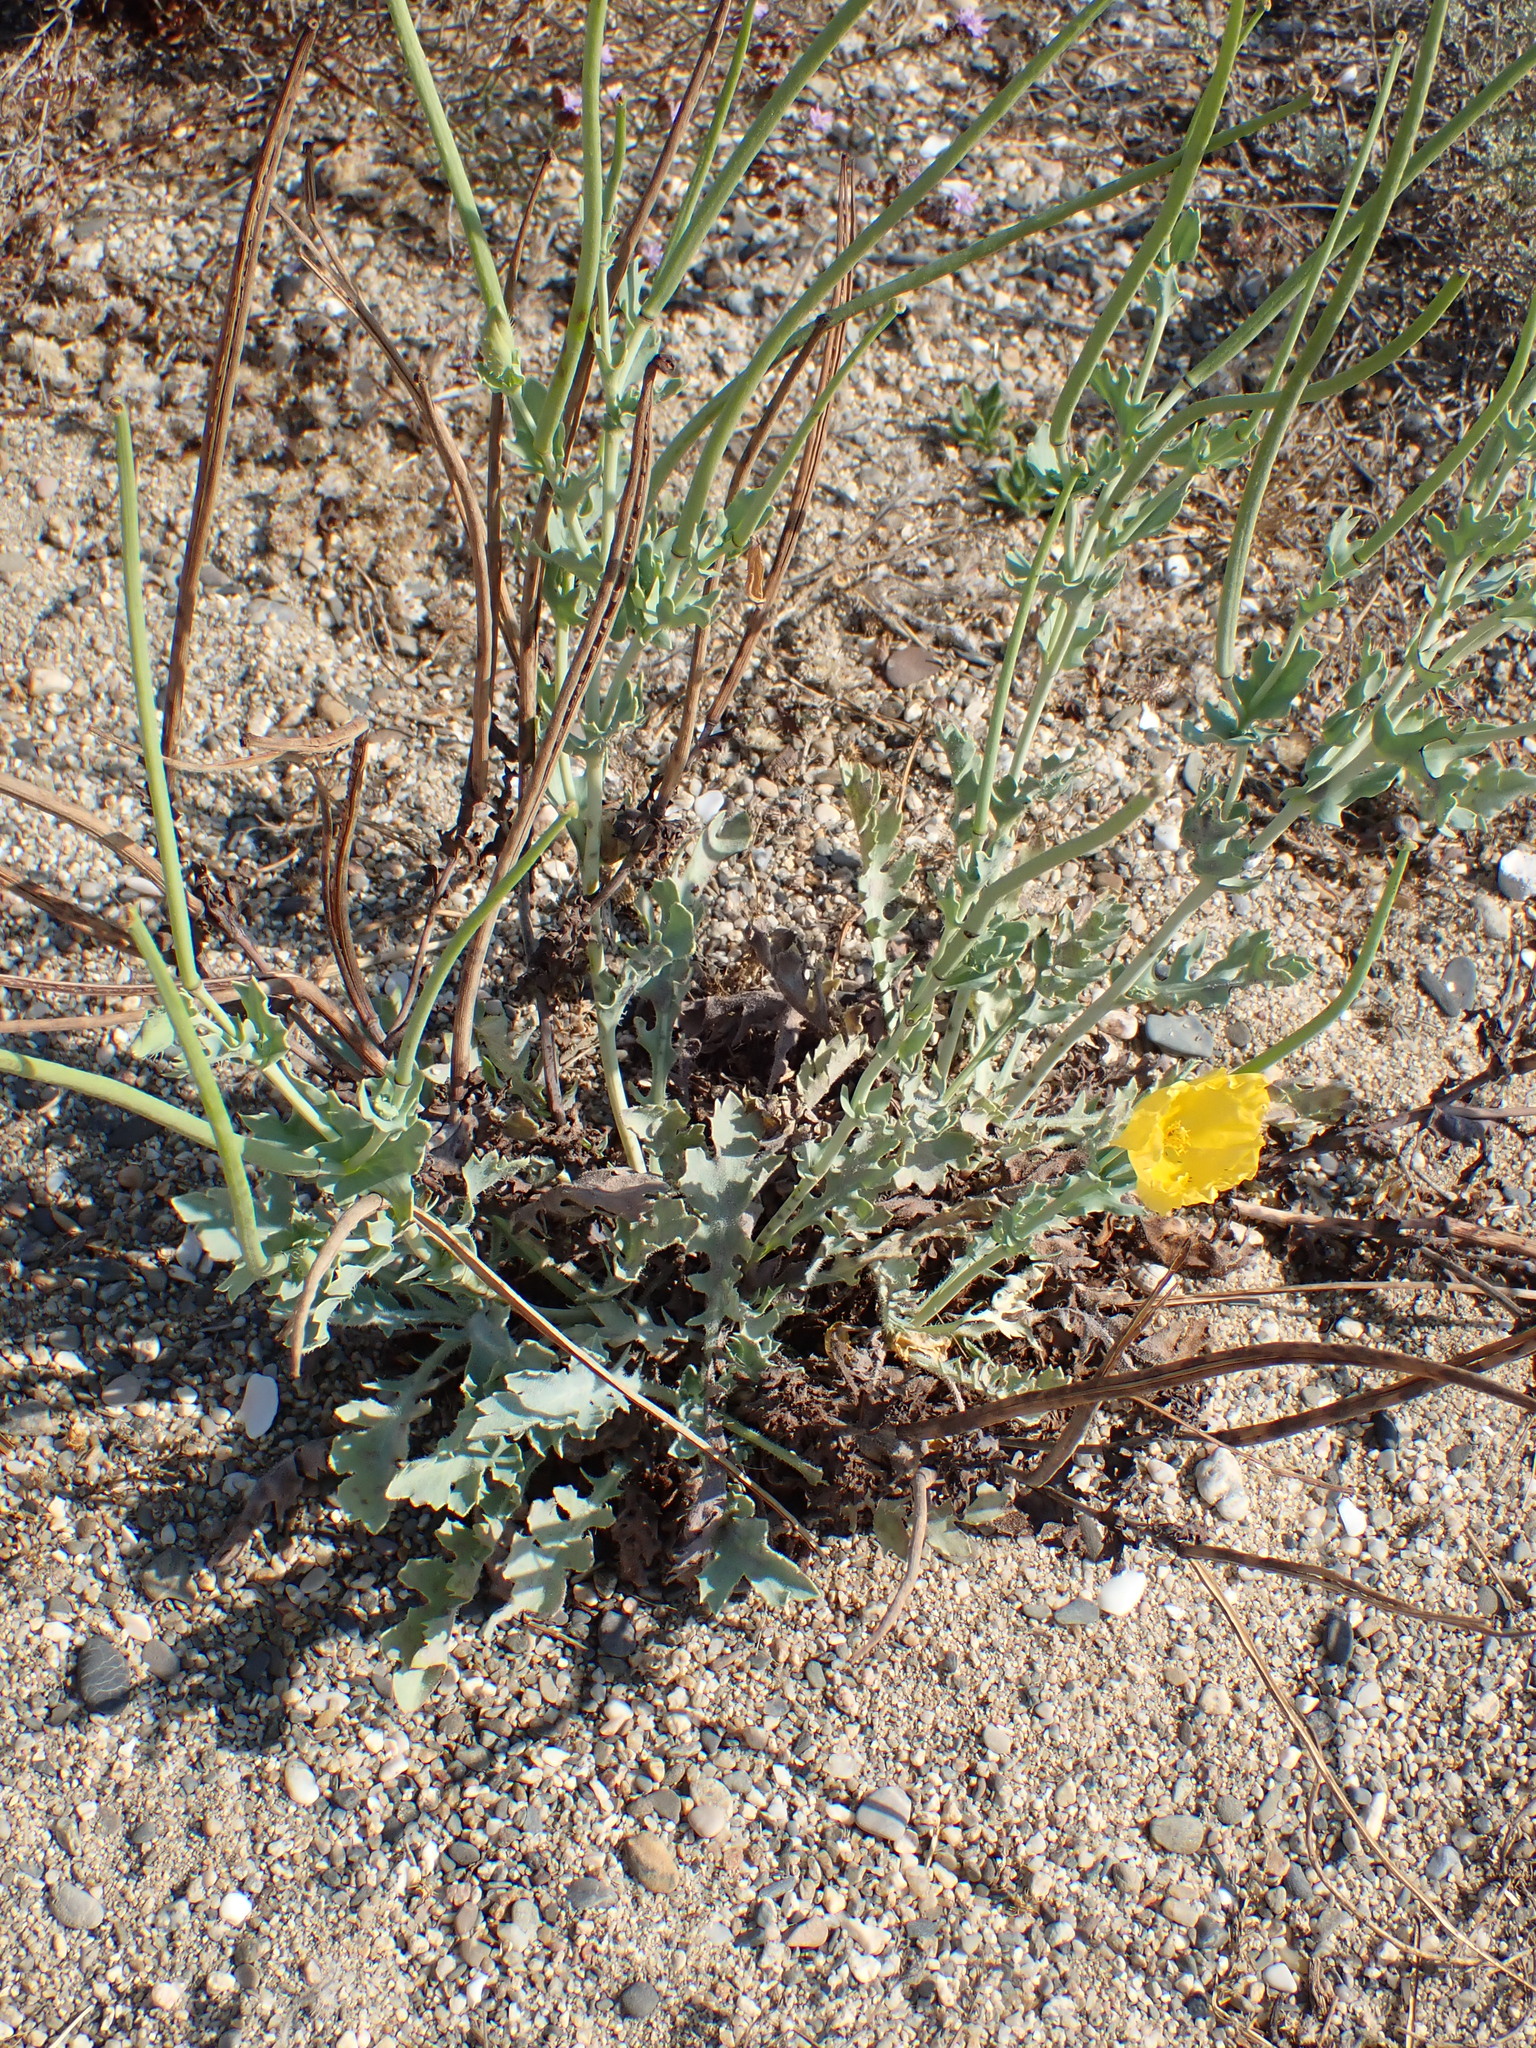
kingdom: Plantae
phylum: Tracheophyta
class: Magnoliopsida
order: Ranunculales
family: Papaveraceae
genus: Glaucium
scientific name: Glaucium flavum
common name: Yellow horned-poppy
